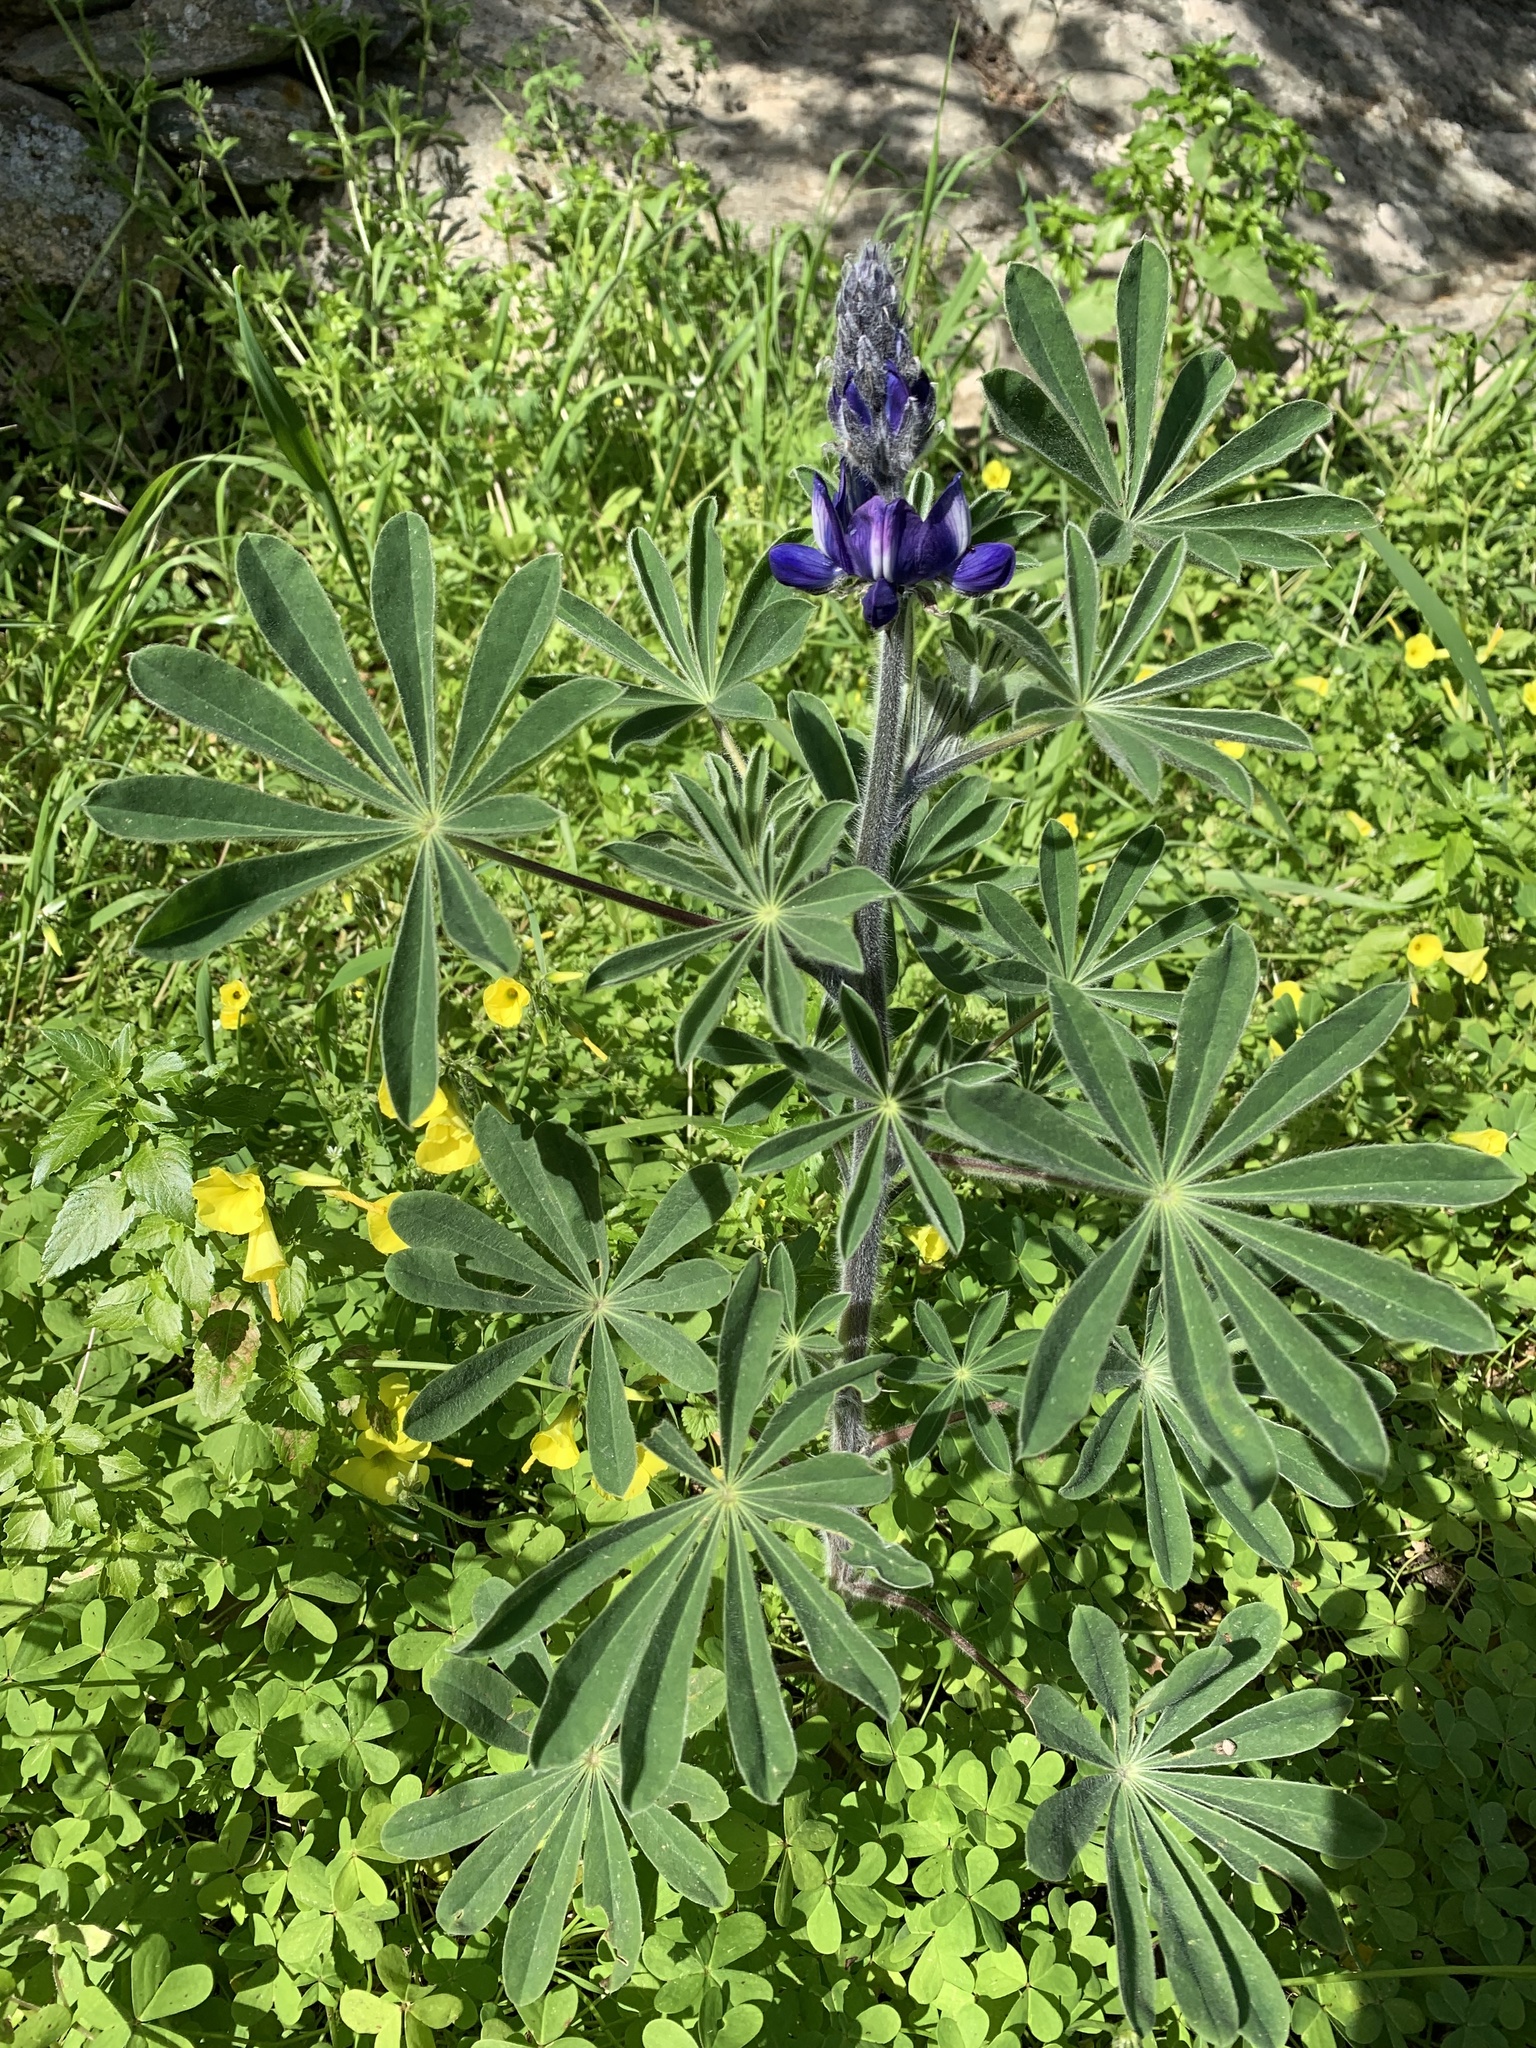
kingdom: Plantae
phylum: Tracheophyta
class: Magnoliopsida
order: Fabales
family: Fabaceae
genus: Lupinus
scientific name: Lupinus pilosus
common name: Blue lupine
